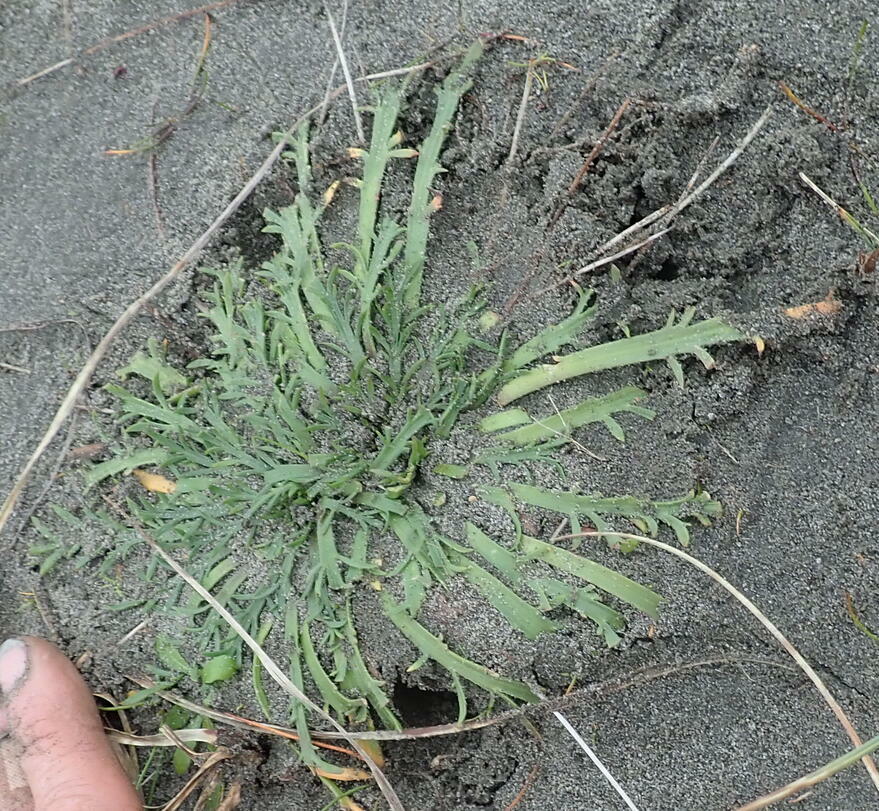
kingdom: Plantae
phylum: Tracheophyta
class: Magnoliopsida
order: Lamiales
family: Plantaginaceae
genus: Plantago
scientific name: Plantago coronopus
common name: Buck's-horn plantain
